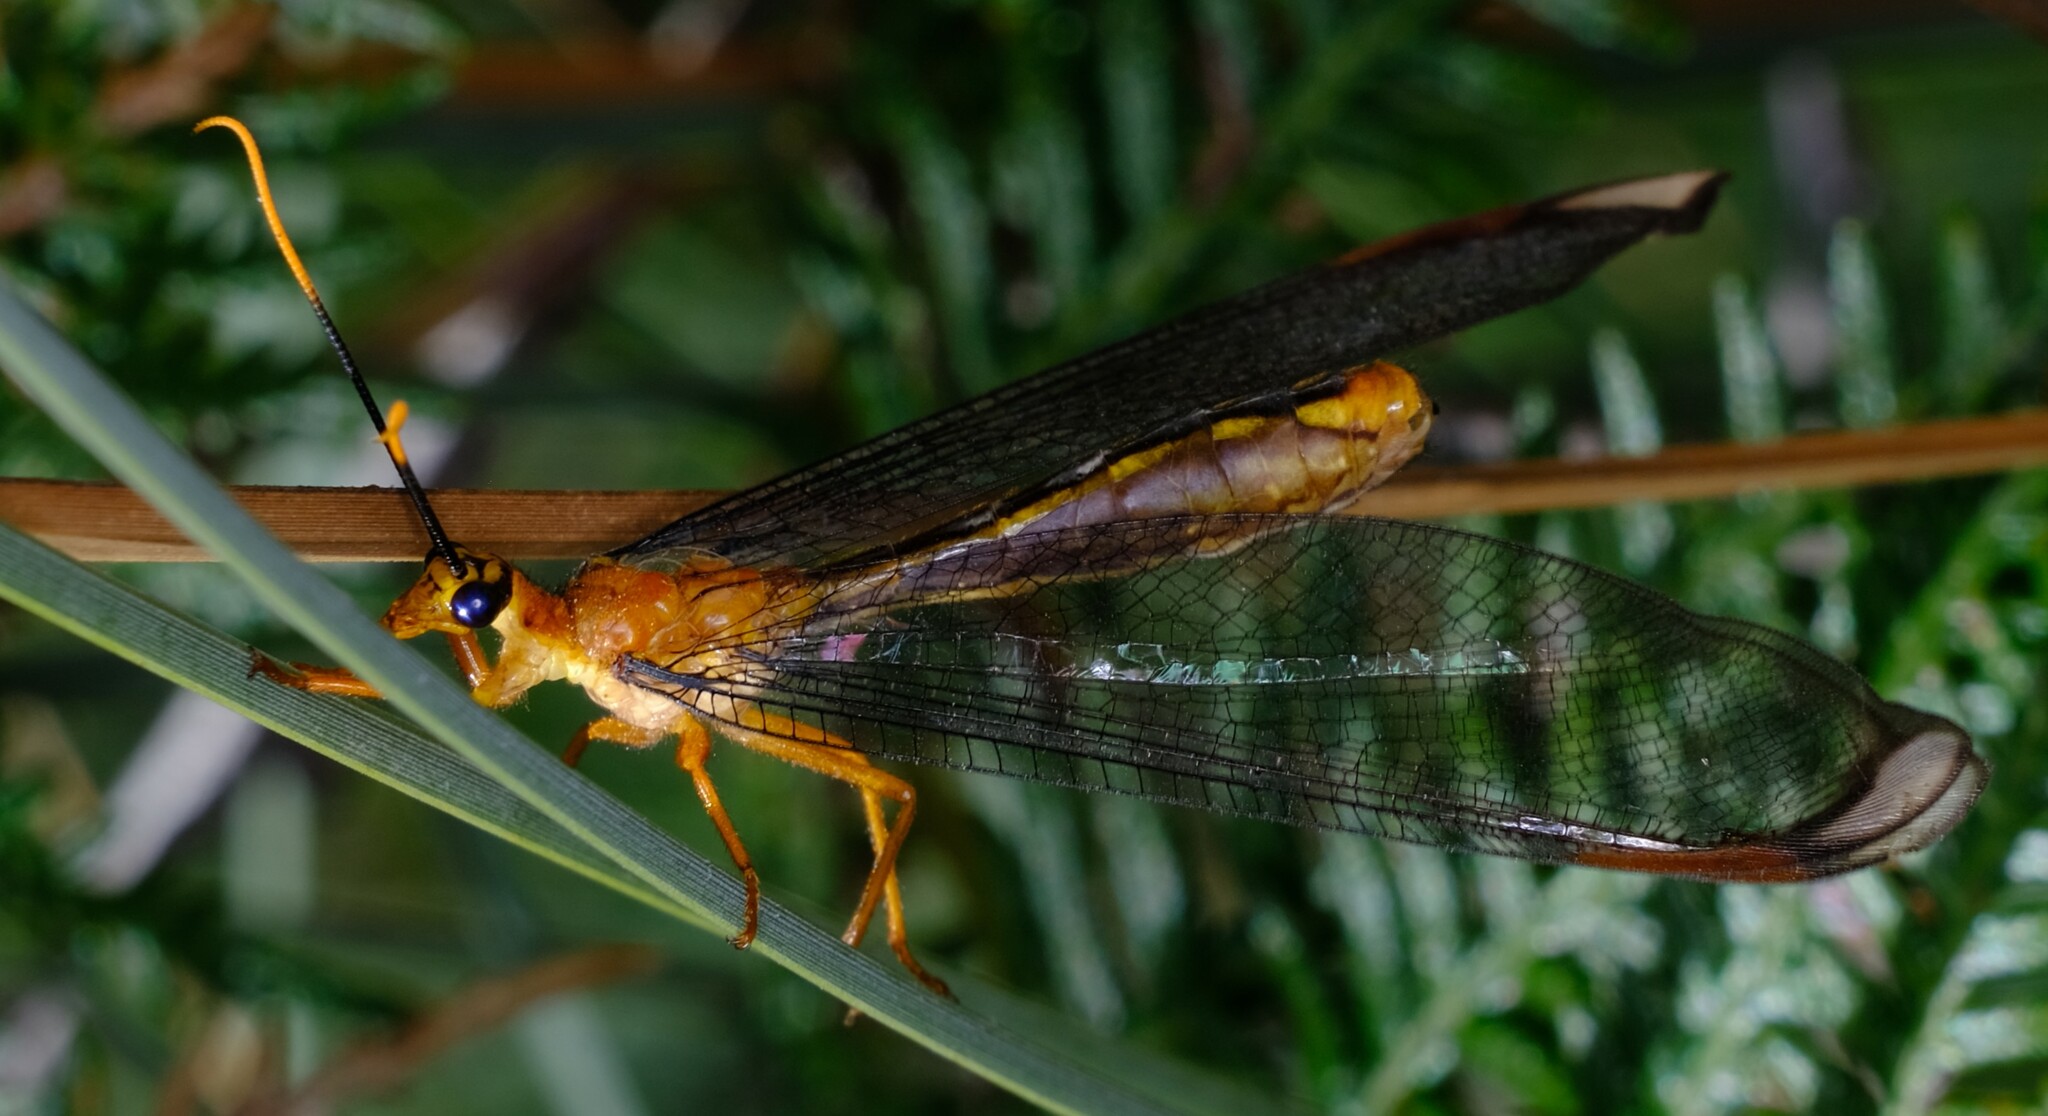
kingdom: Animalia
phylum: Arthropoda
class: Insecta
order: Neuroptera
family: Nymphidae
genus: Nymphes
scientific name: Nymphes myrmeleonoides
